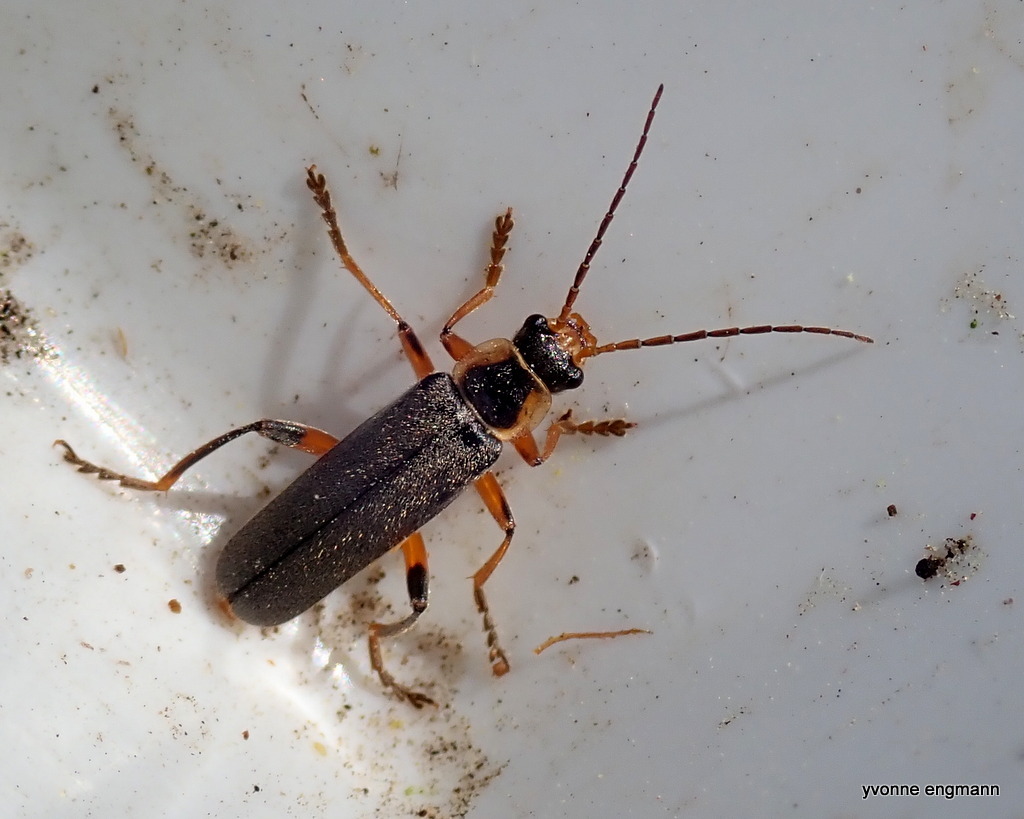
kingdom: Animalia
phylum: Arthropoda
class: Insecta
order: Coleoptera
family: Cantharidae
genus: Cantharis
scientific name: Cantharis nigricans
